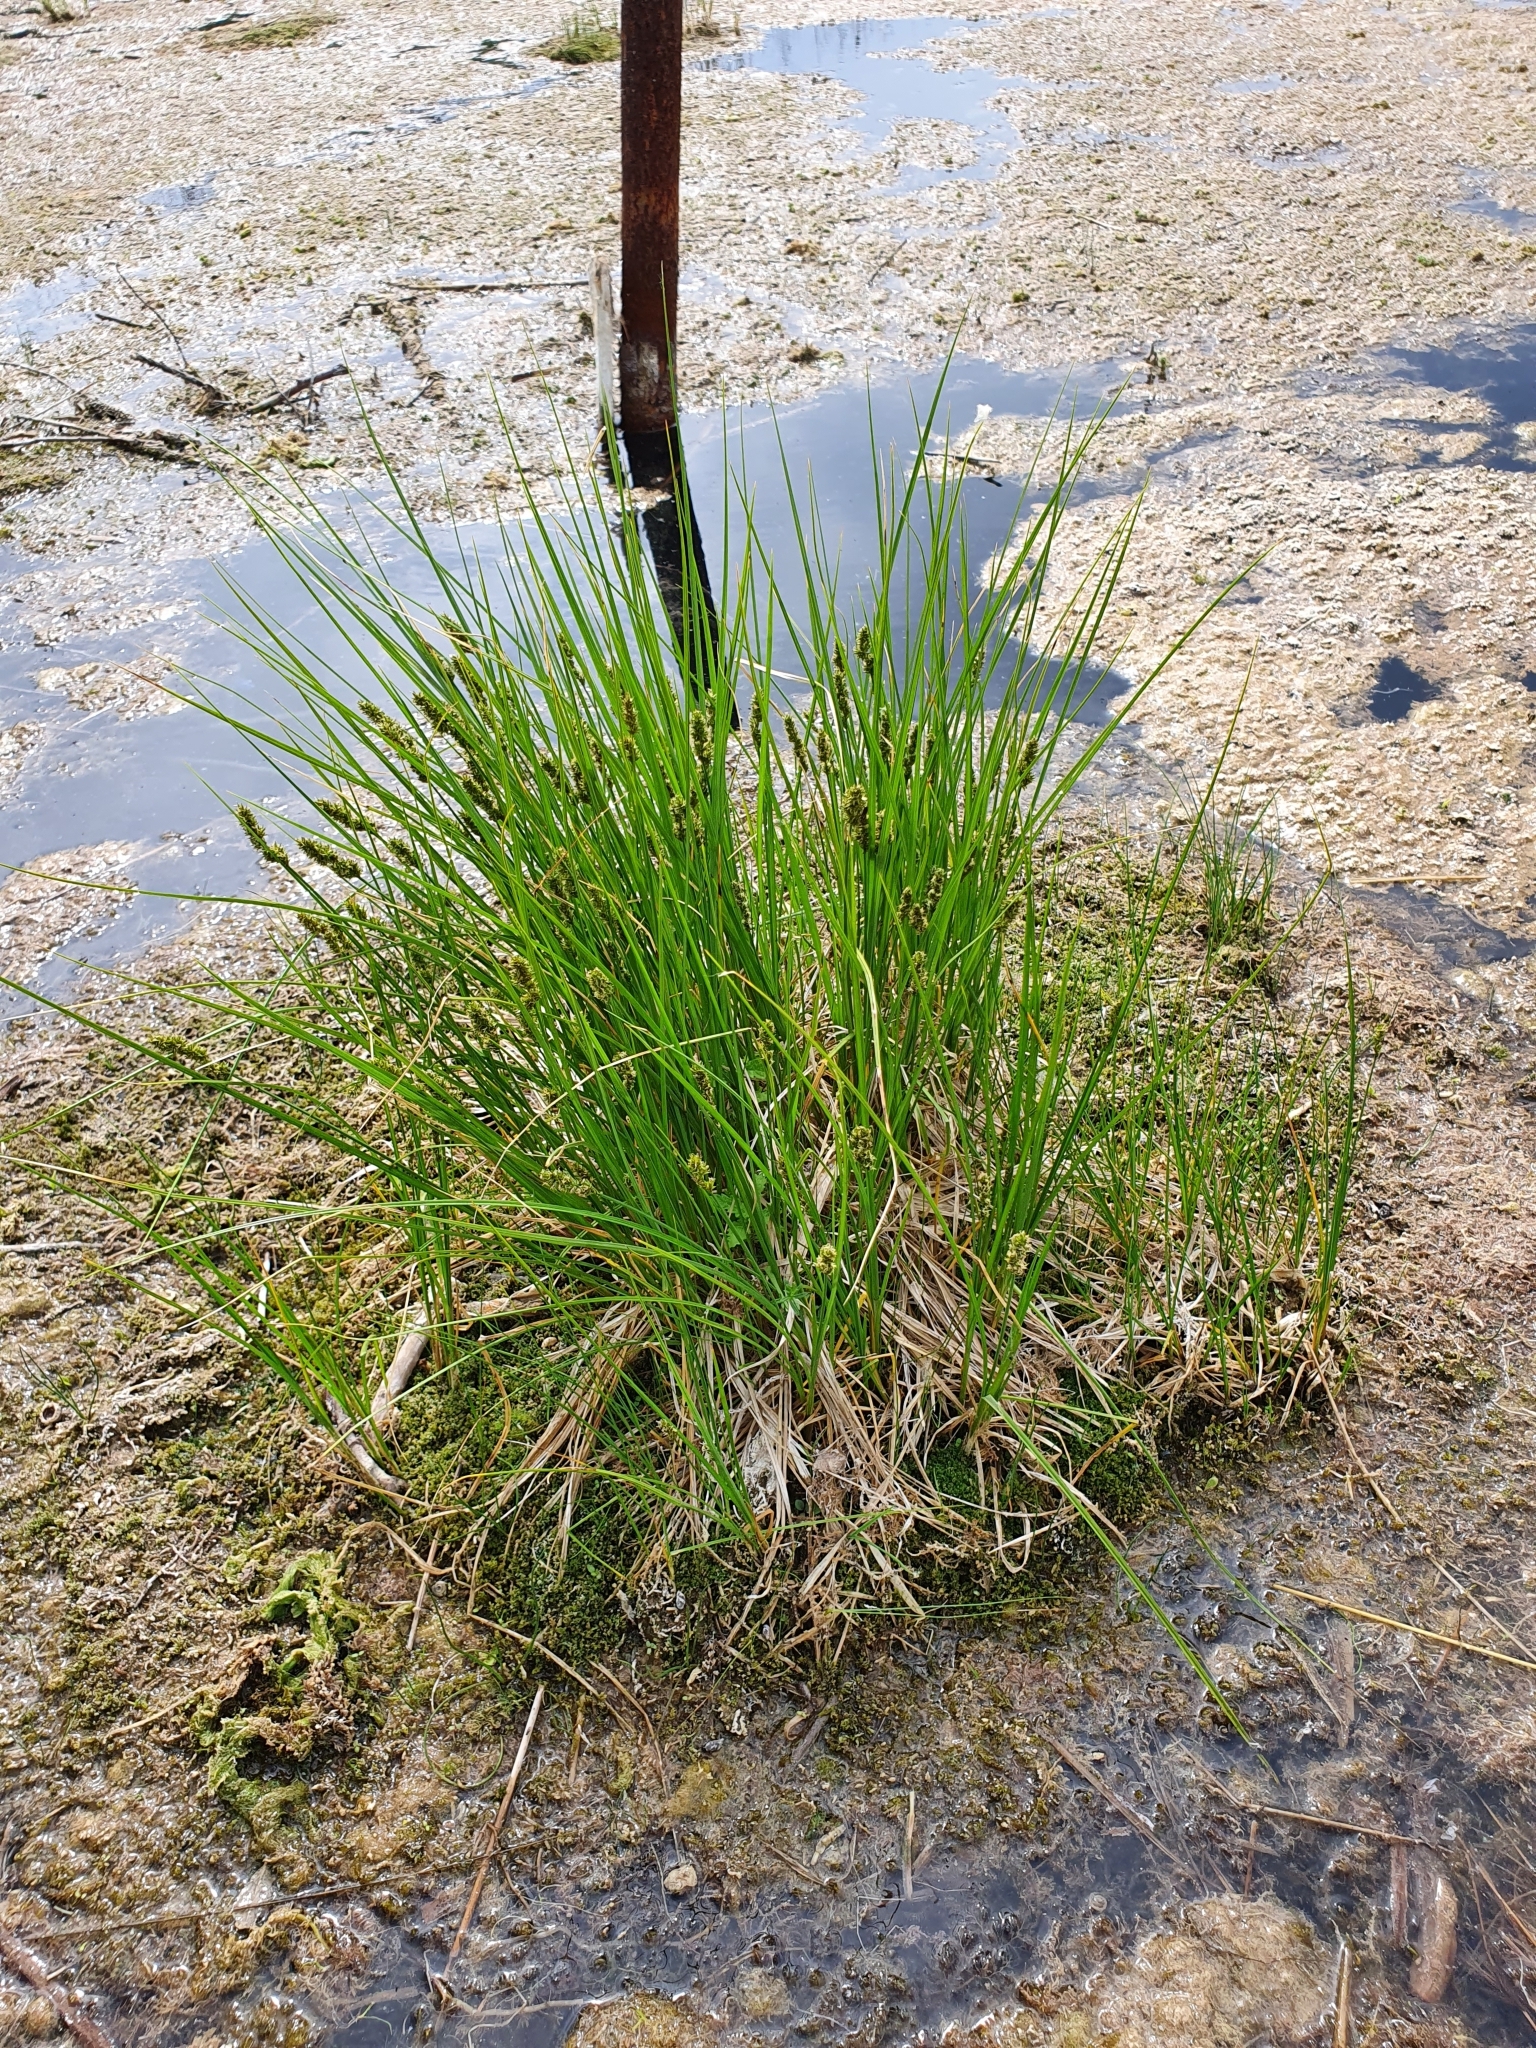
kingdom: Plantae
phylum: Tracheophyta
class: Liliopsida
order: Poales
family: Cyperaceae
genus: Carex
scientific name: Carex spicata
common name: Spiked sedge
